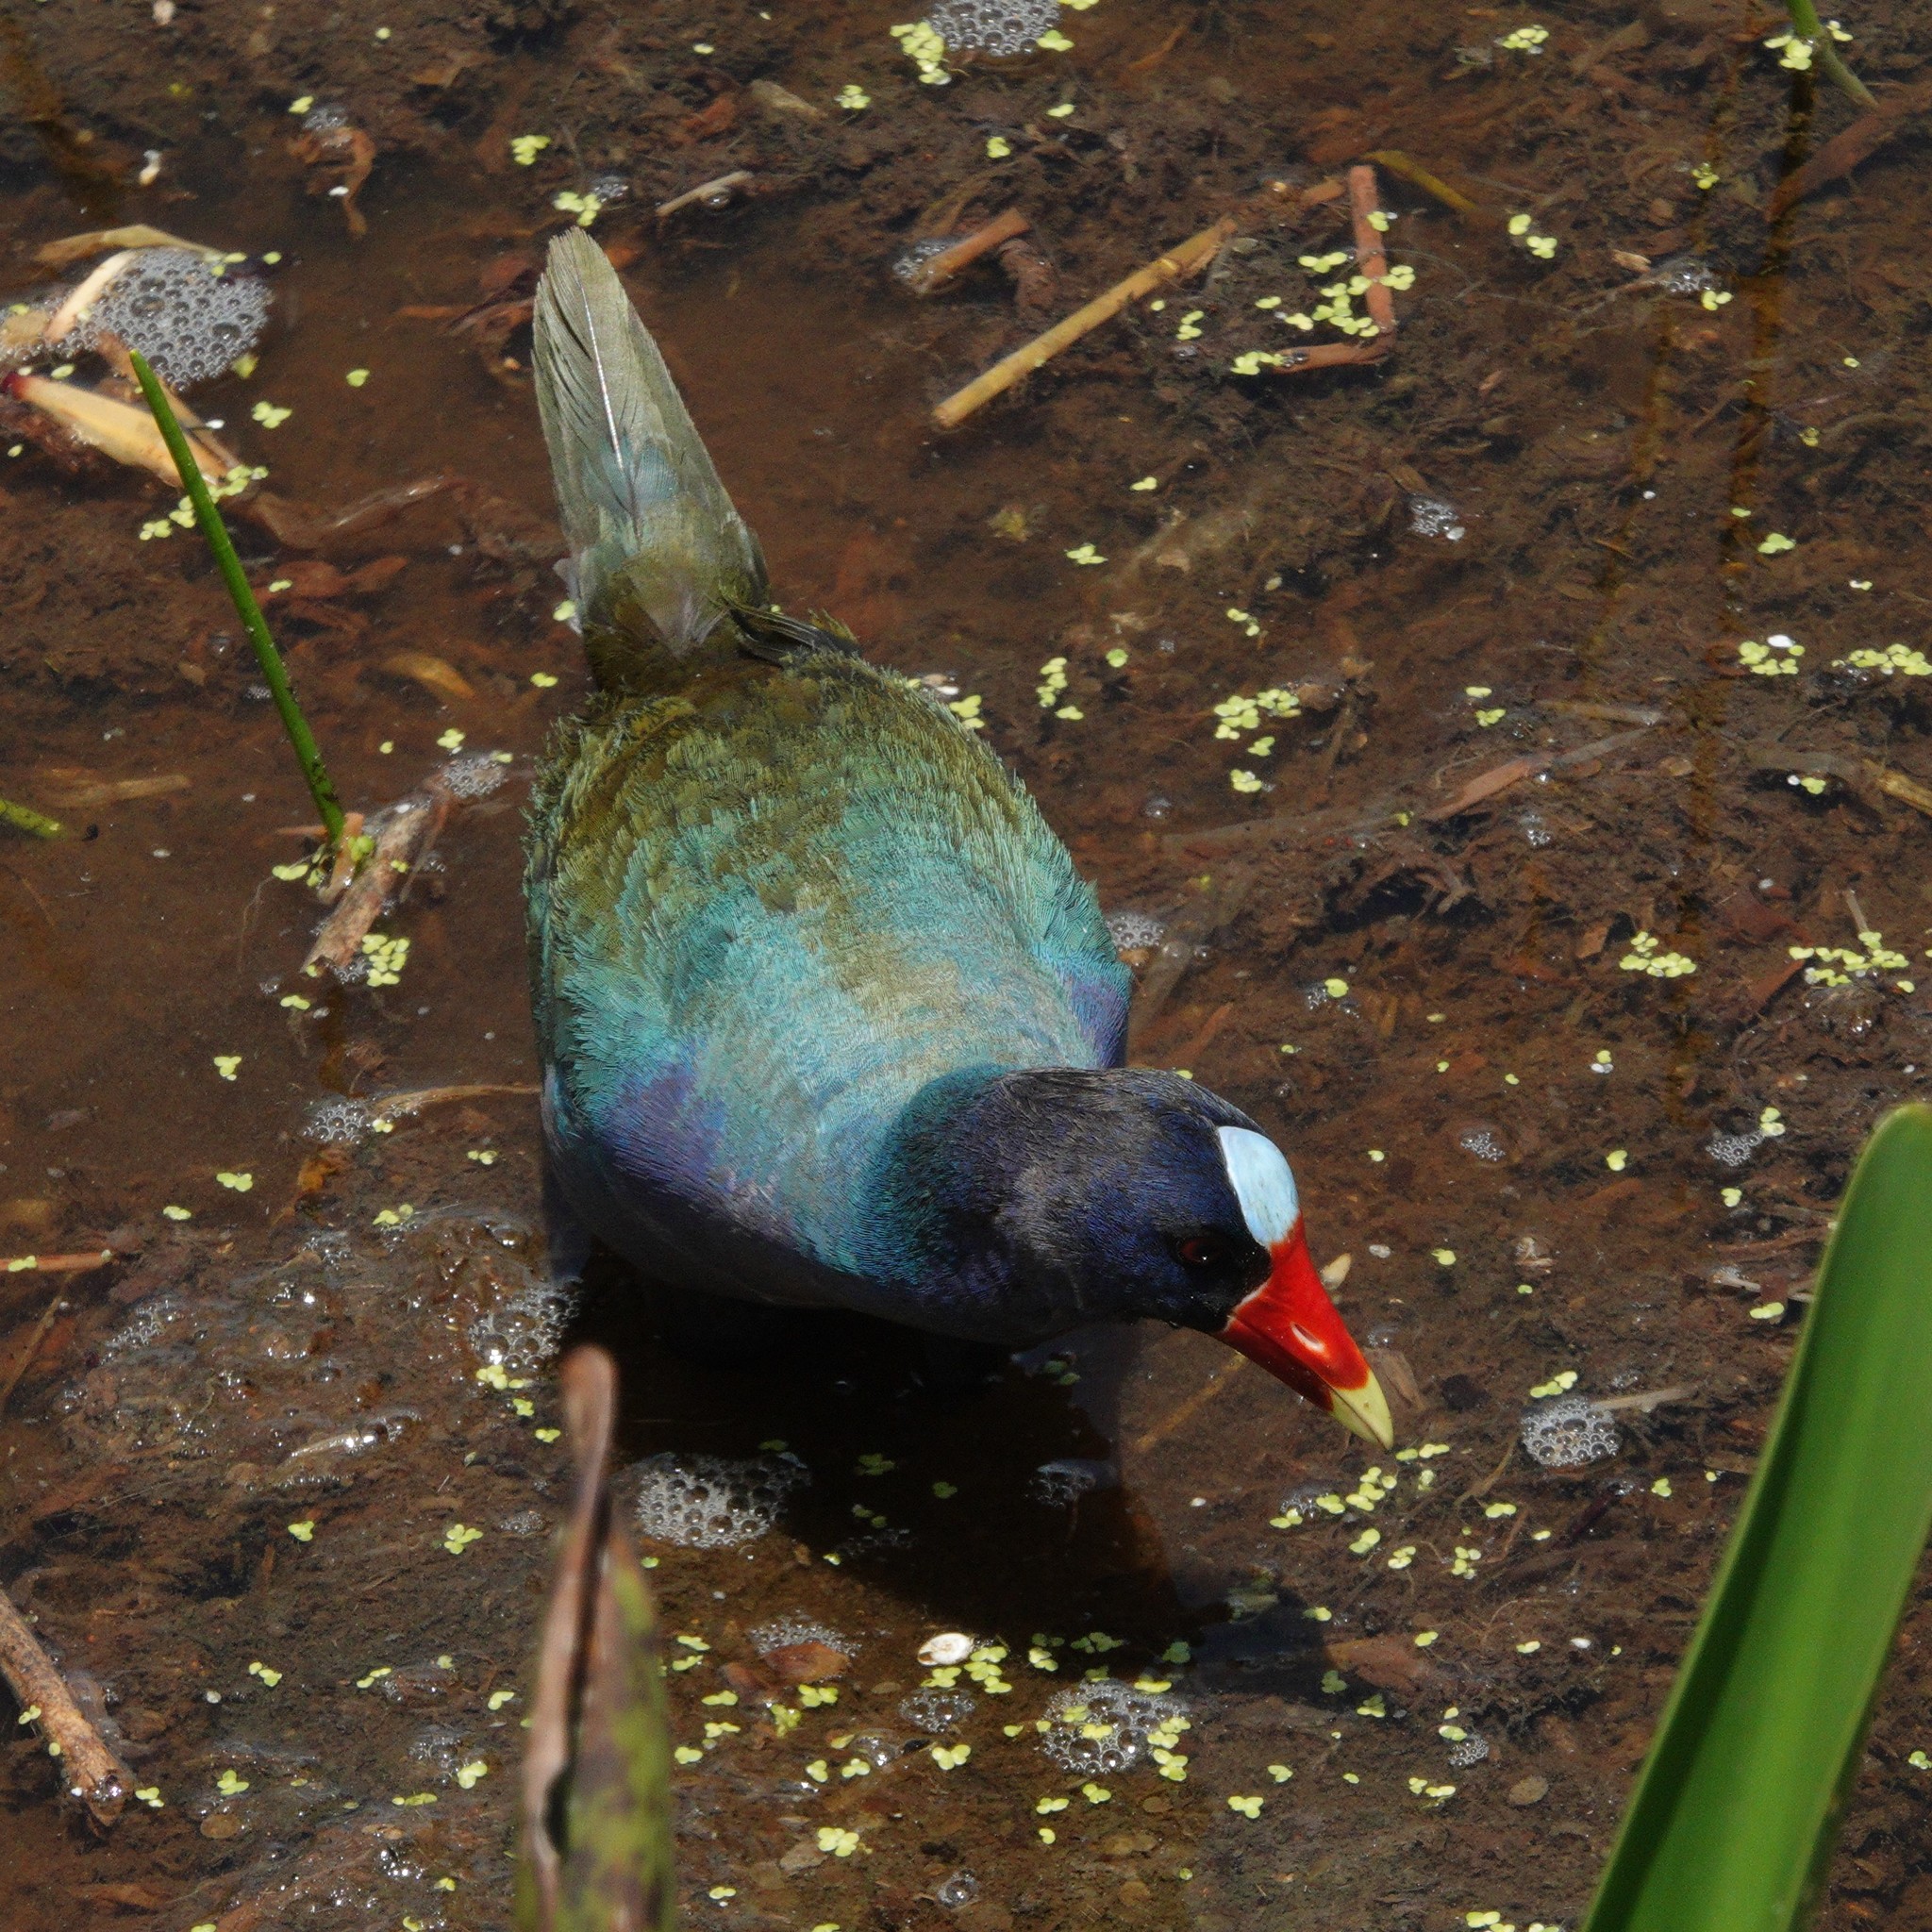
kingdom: Animalia
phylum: Chordata
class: Aves
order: Gruiformes
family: Rallidae
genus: Porphyrio
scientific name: Porphyrio martinica
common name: Purple gallinule
